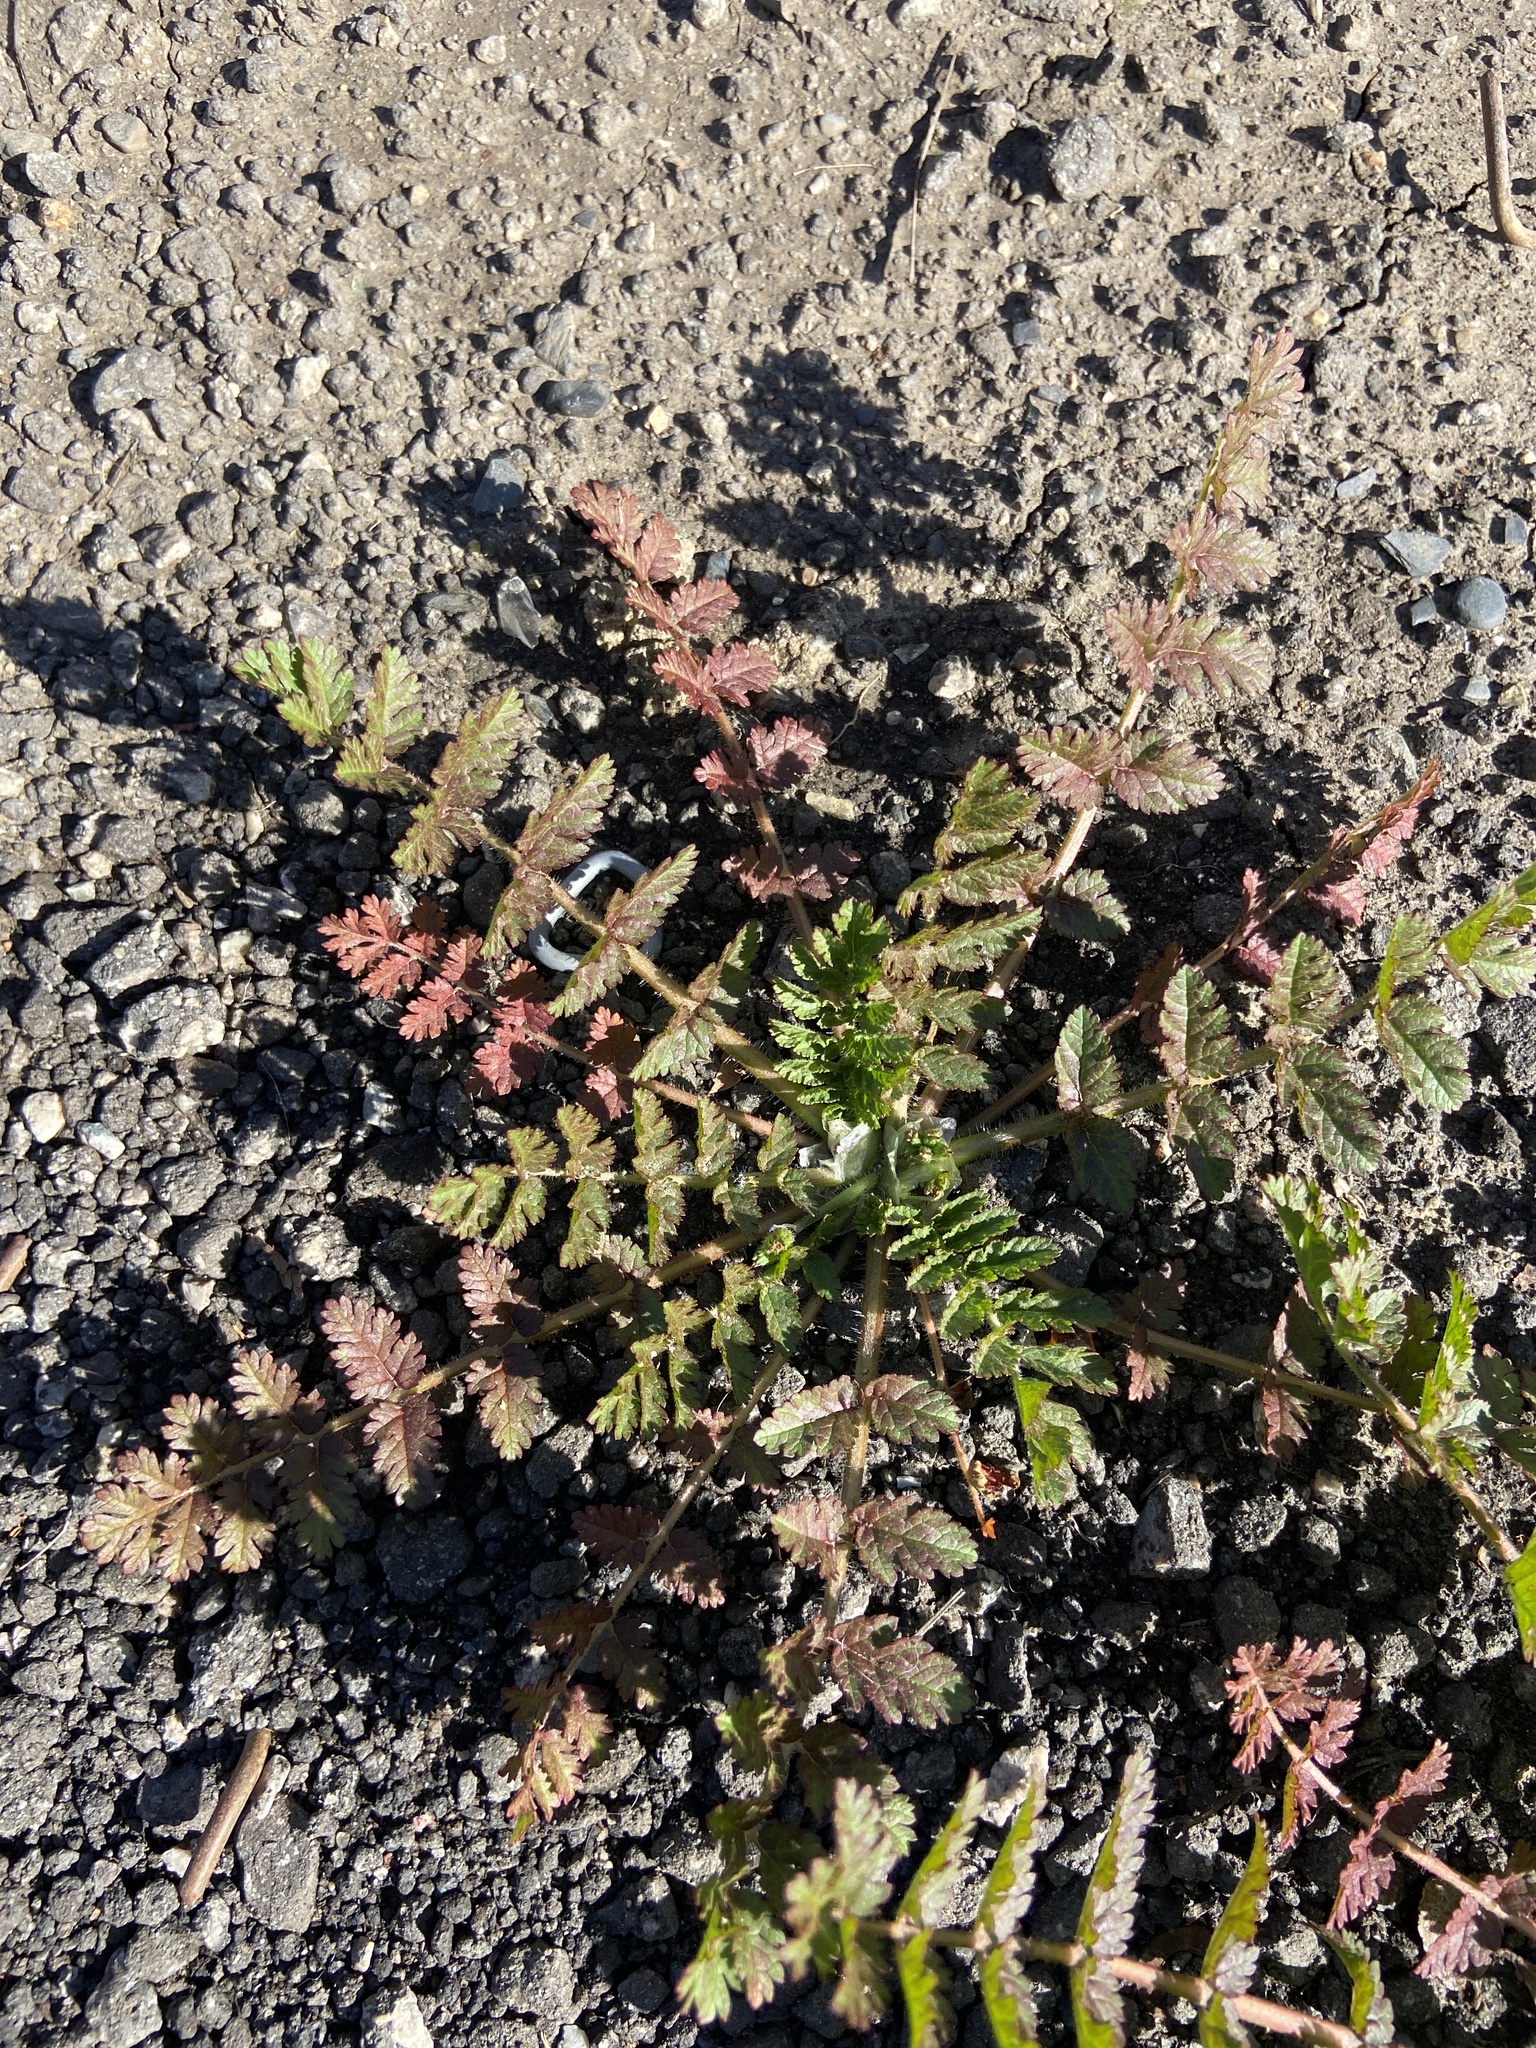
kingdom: Plantae
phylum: Tracheophyta
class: Magnoliopsida
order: Geraniales
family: Geraniaceae
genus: Erodium
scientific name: Erodium cicutarium
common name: Common stork's-bill
